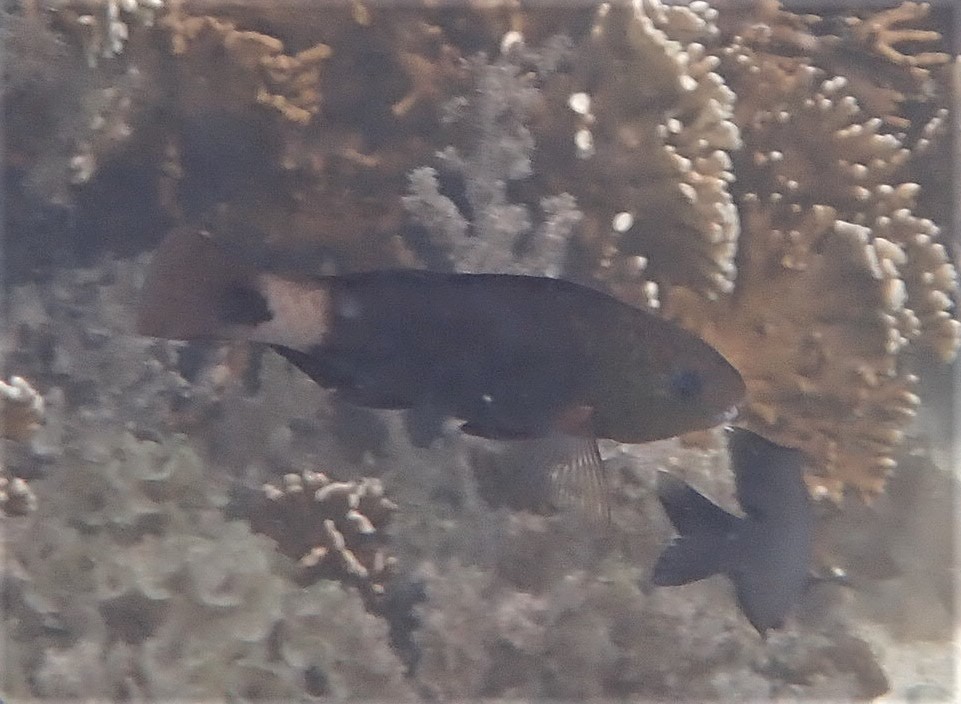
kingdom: Animalia
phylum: Chordata
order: Perciformes
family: Scaridae
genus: Chlorurus
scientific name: Chlorurus sordidus
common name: Bullethead parrotfish
